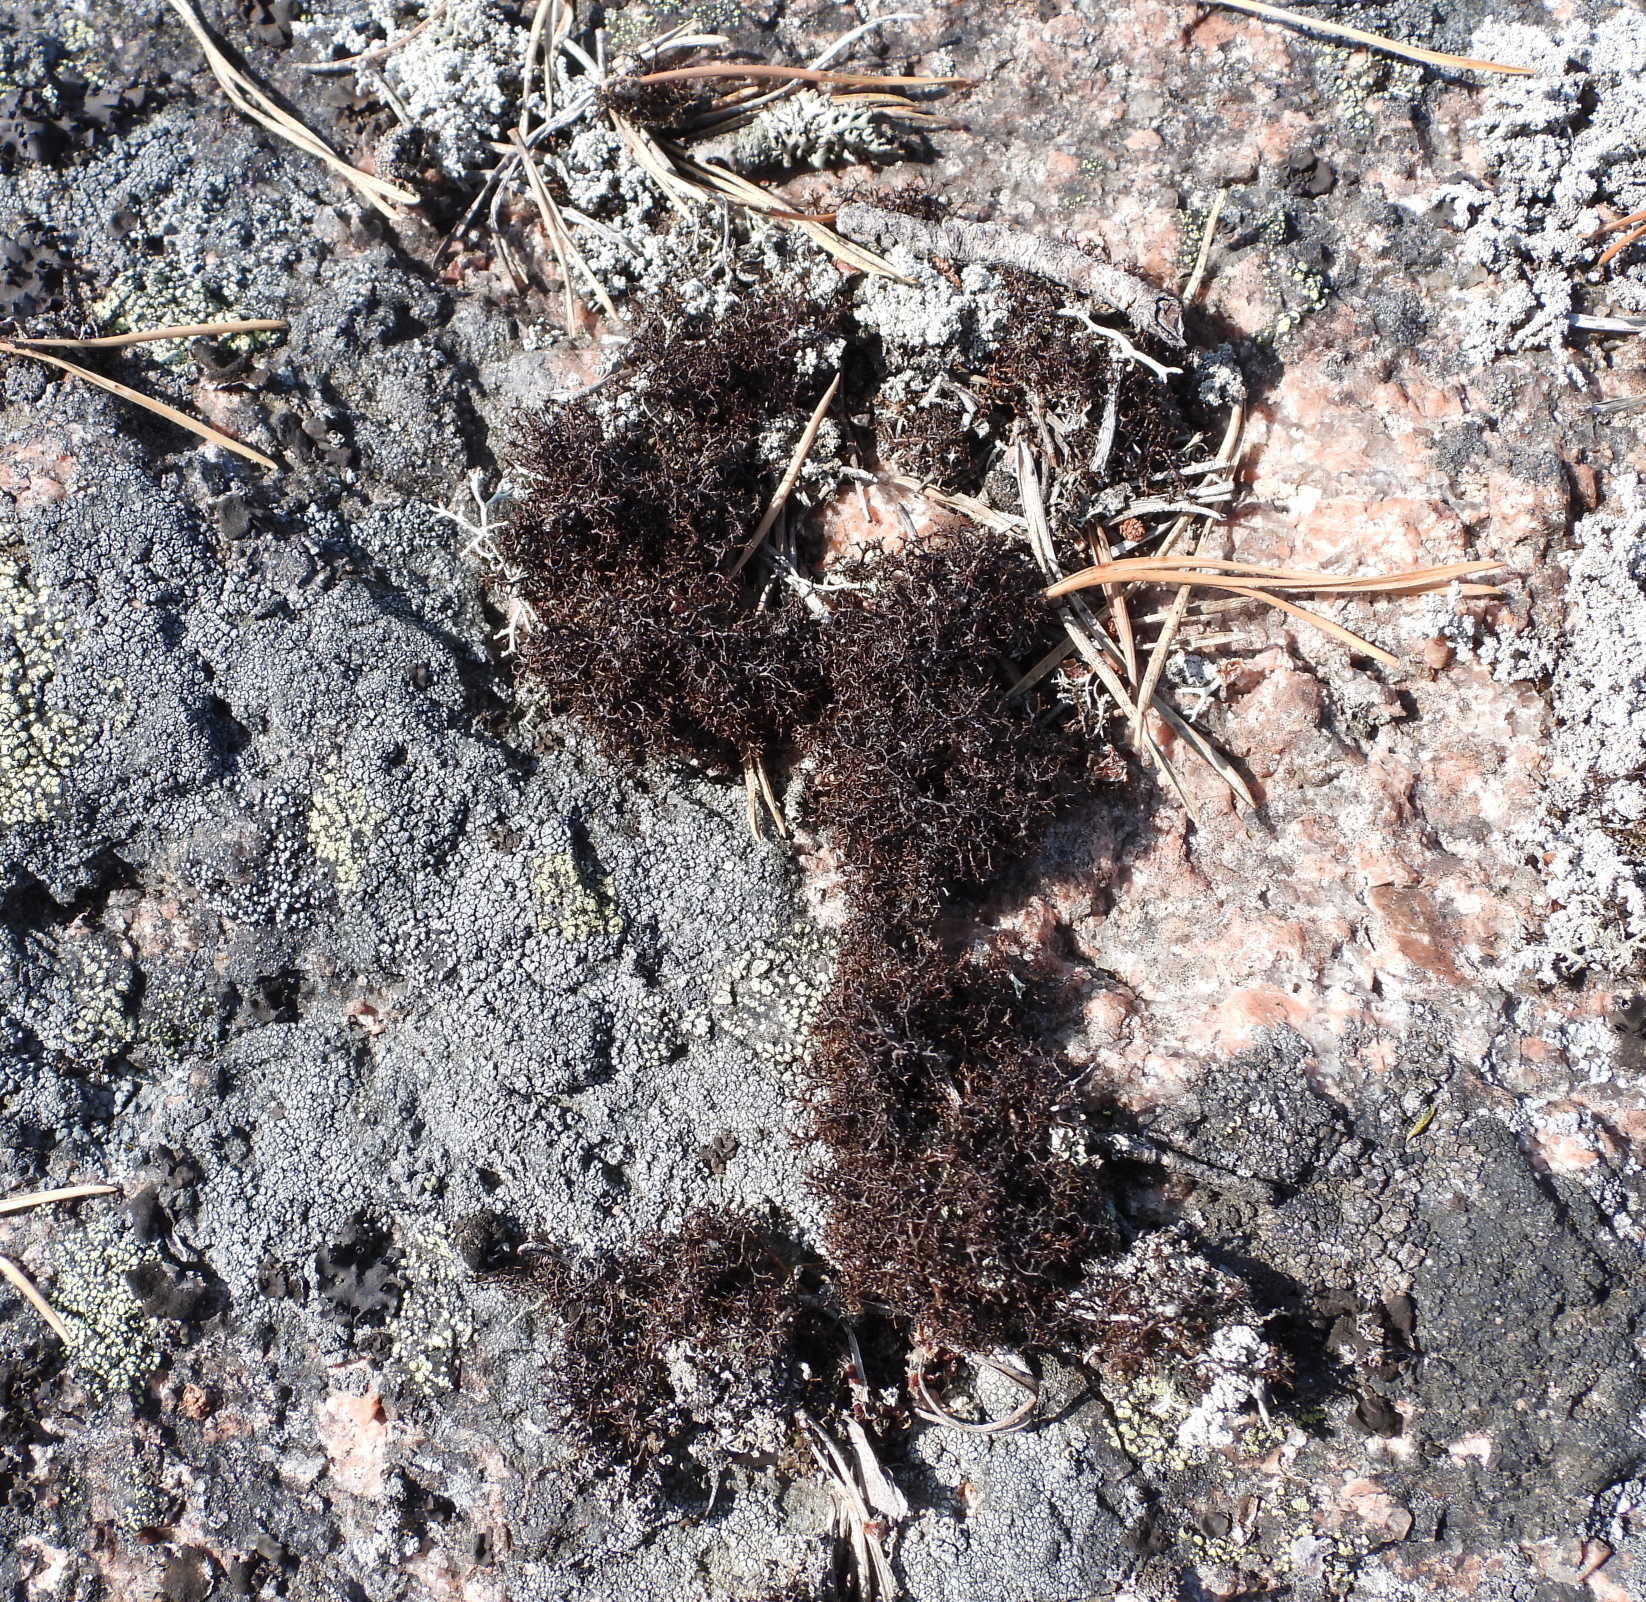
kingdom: Fungi
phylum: Ascomycota
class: Lecanoromycetes
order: Lecanorales
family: Parmeliaceae
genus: Cetraria
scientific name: Cetraria muricata
